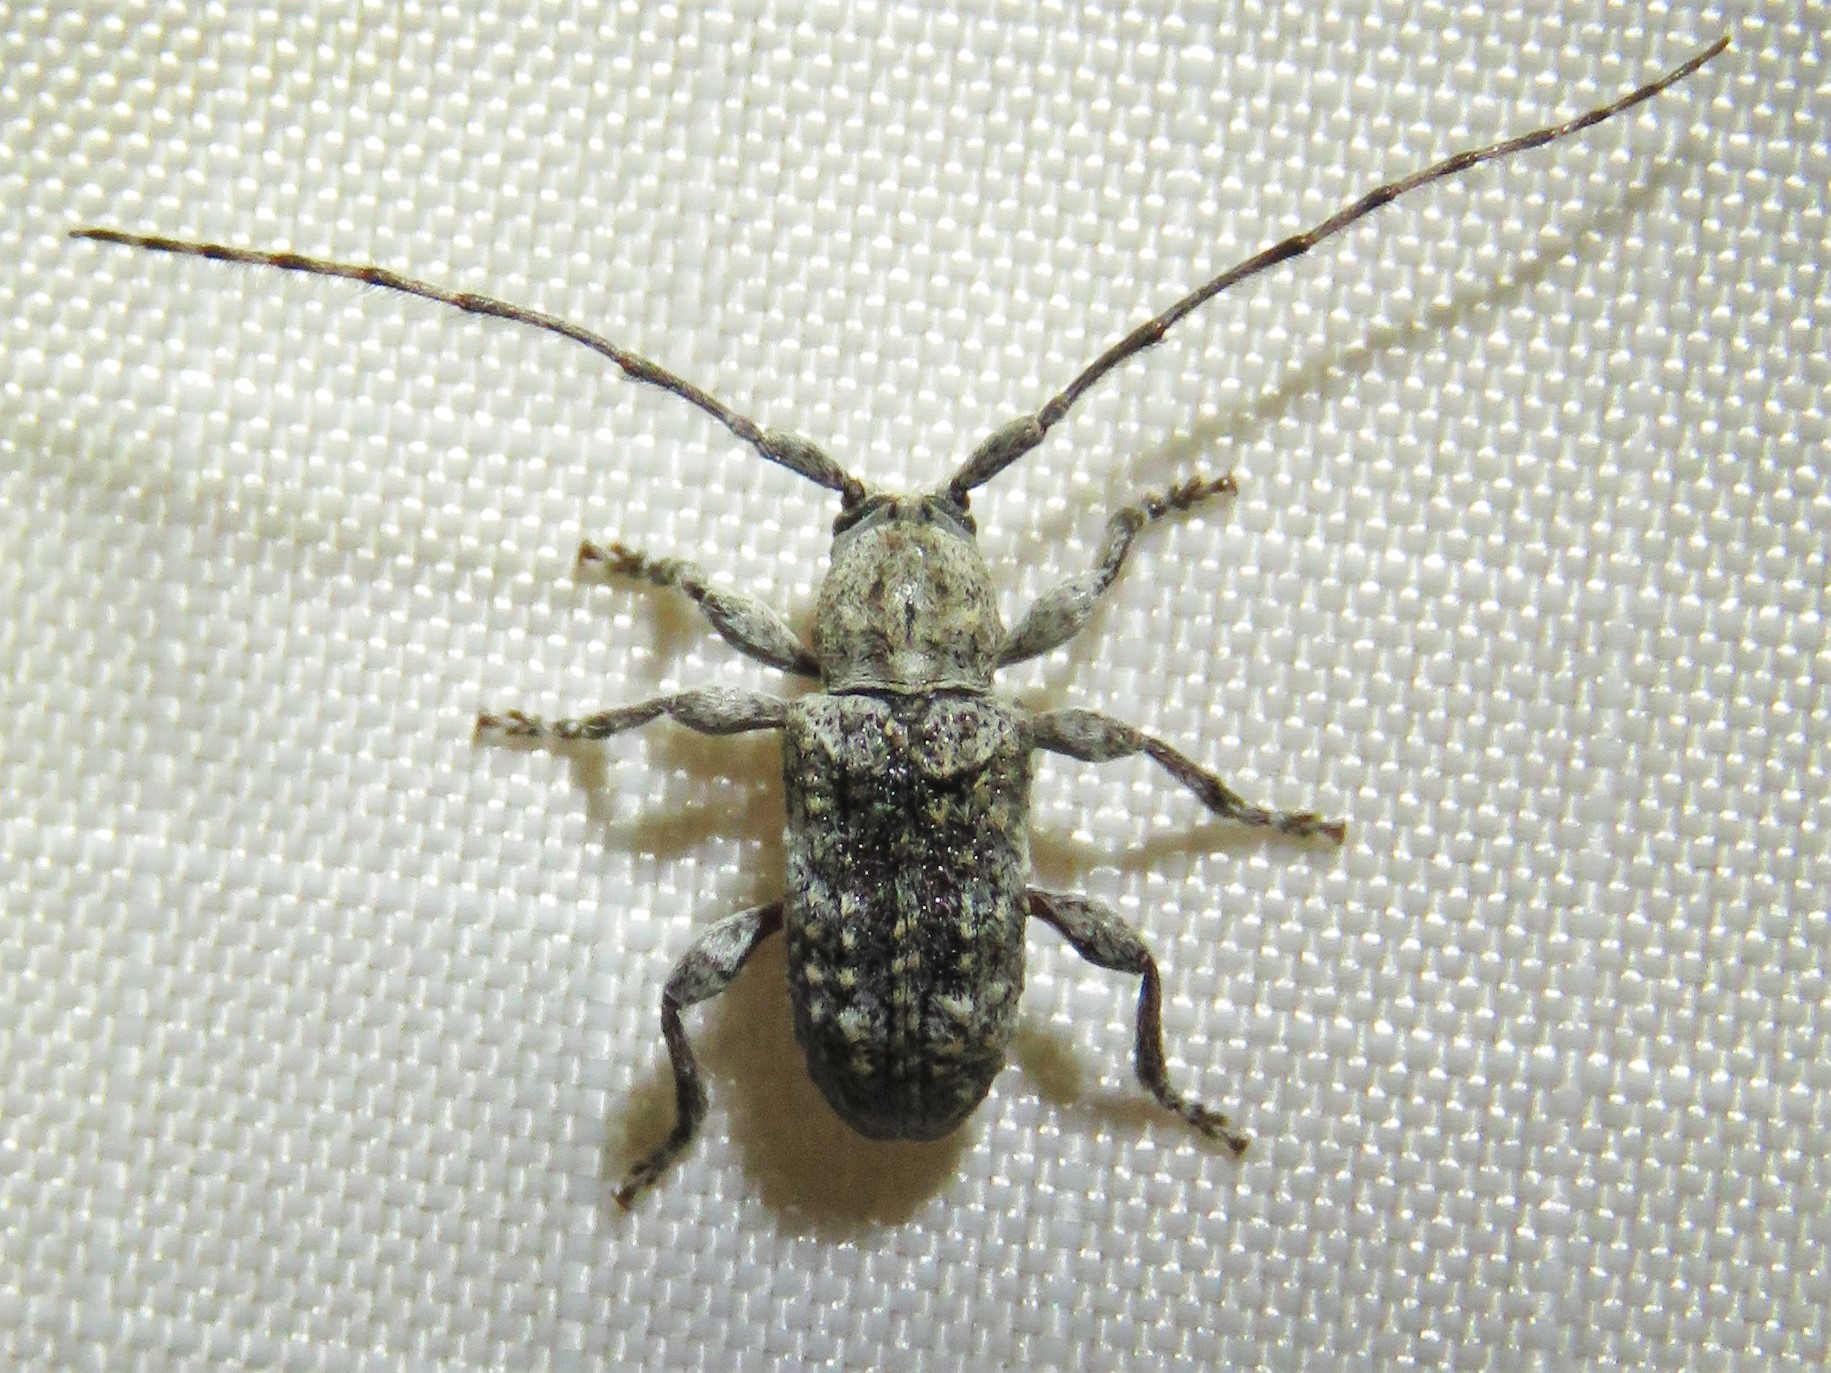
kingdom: Animalia
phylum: Arthropoda
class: Insecta
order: Coleoptera
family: Cerambycidae
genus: Ecyrus
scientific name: Ecyrus arcuatus
